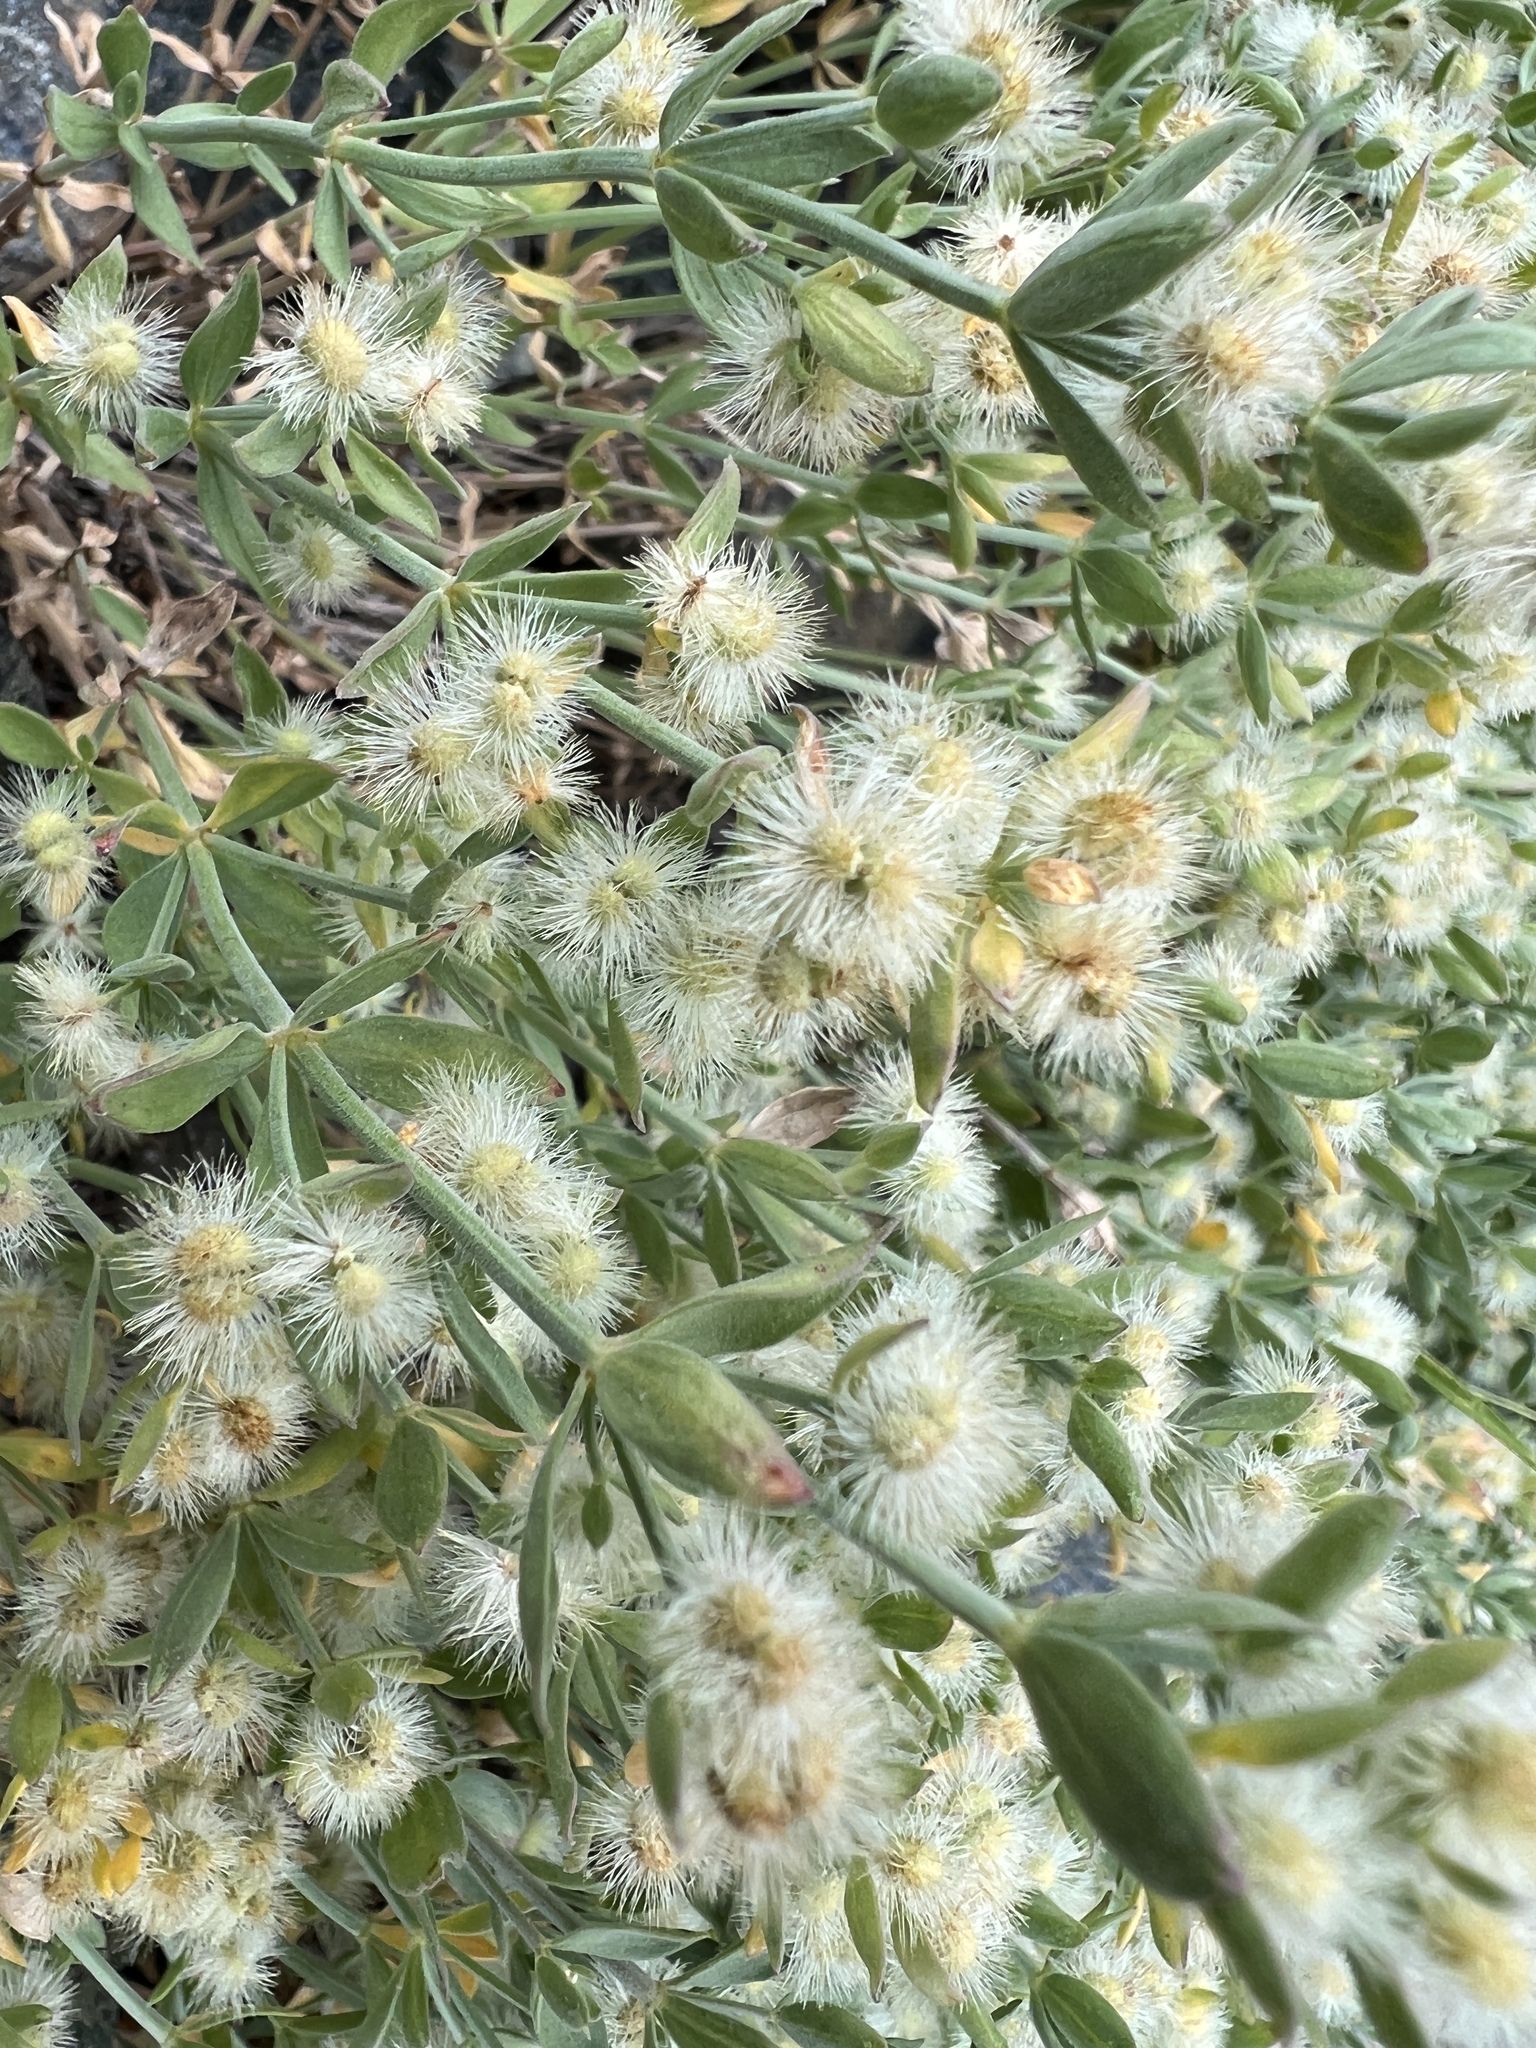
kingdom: Plantae
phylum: Tracheophyta
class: Magnoliopsida
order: Gentianales
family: Rubiaceae
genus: Galium
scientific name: Galium serpenticum
